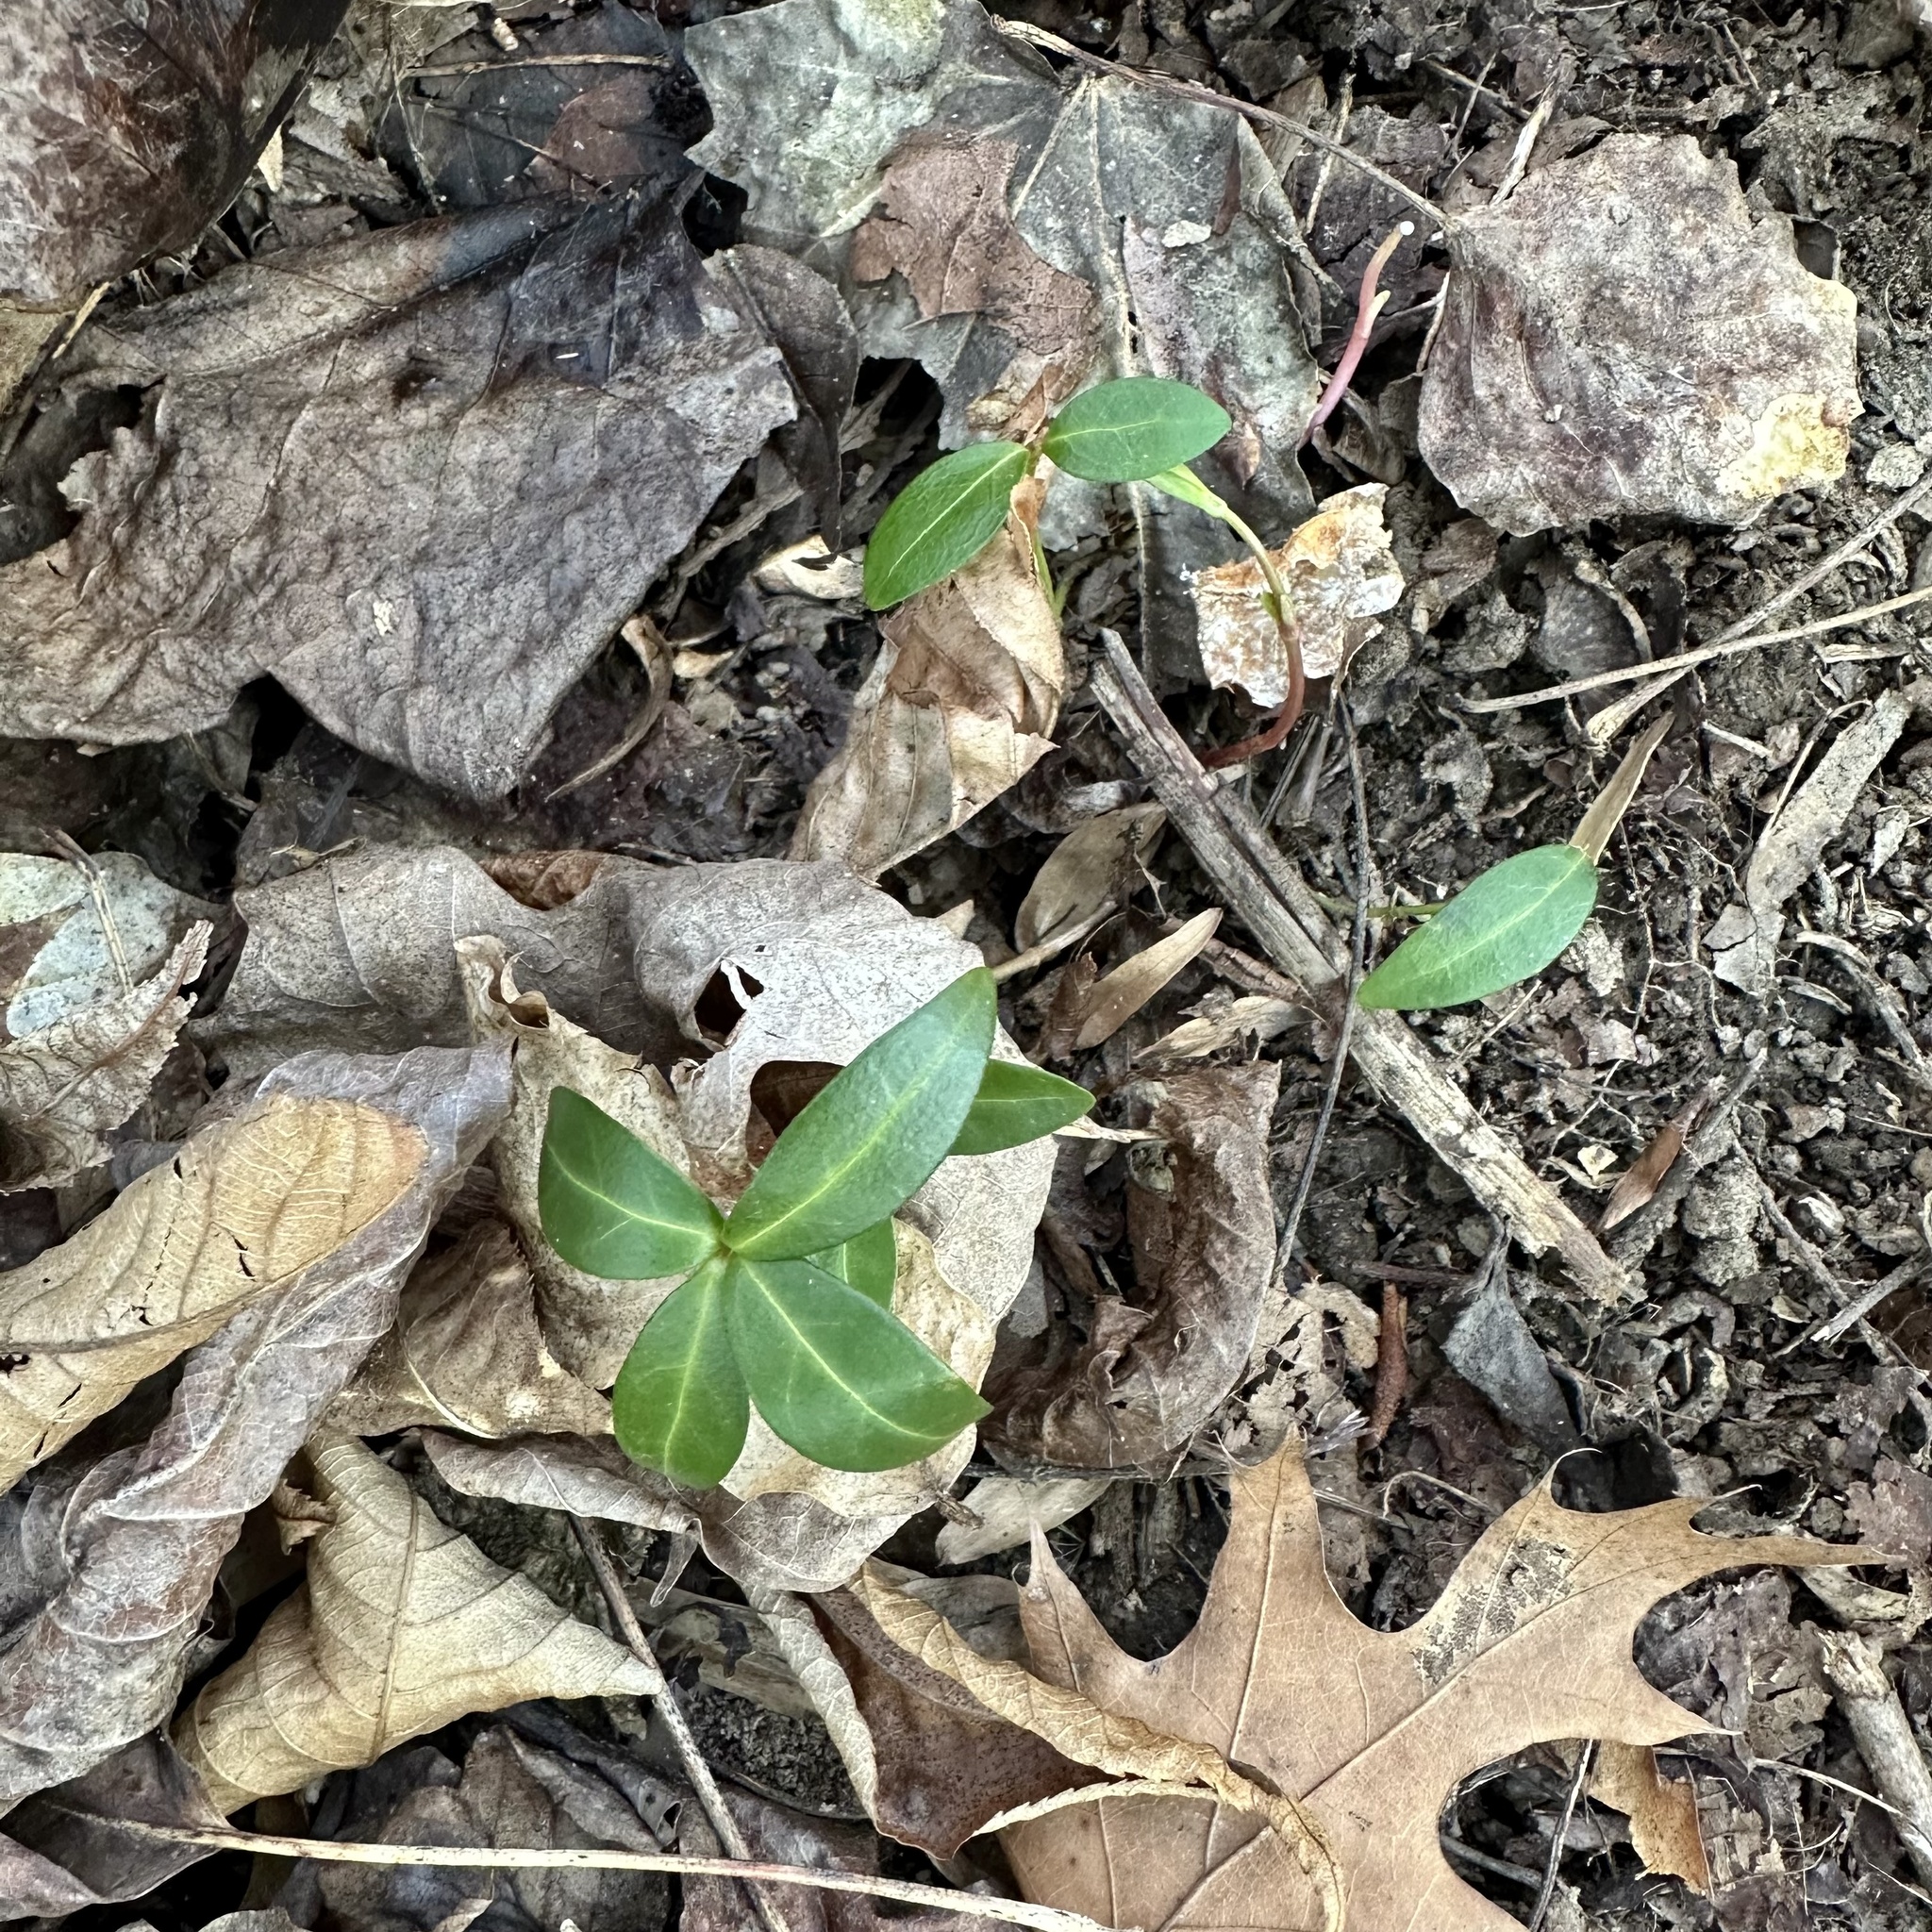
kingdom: Plantae
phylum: Tracheophyta
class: Magnoliopsida
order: Gentianales
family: Apocynaceae
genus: Vinca
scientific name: Vinca minor
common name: Lesser periwinkle
